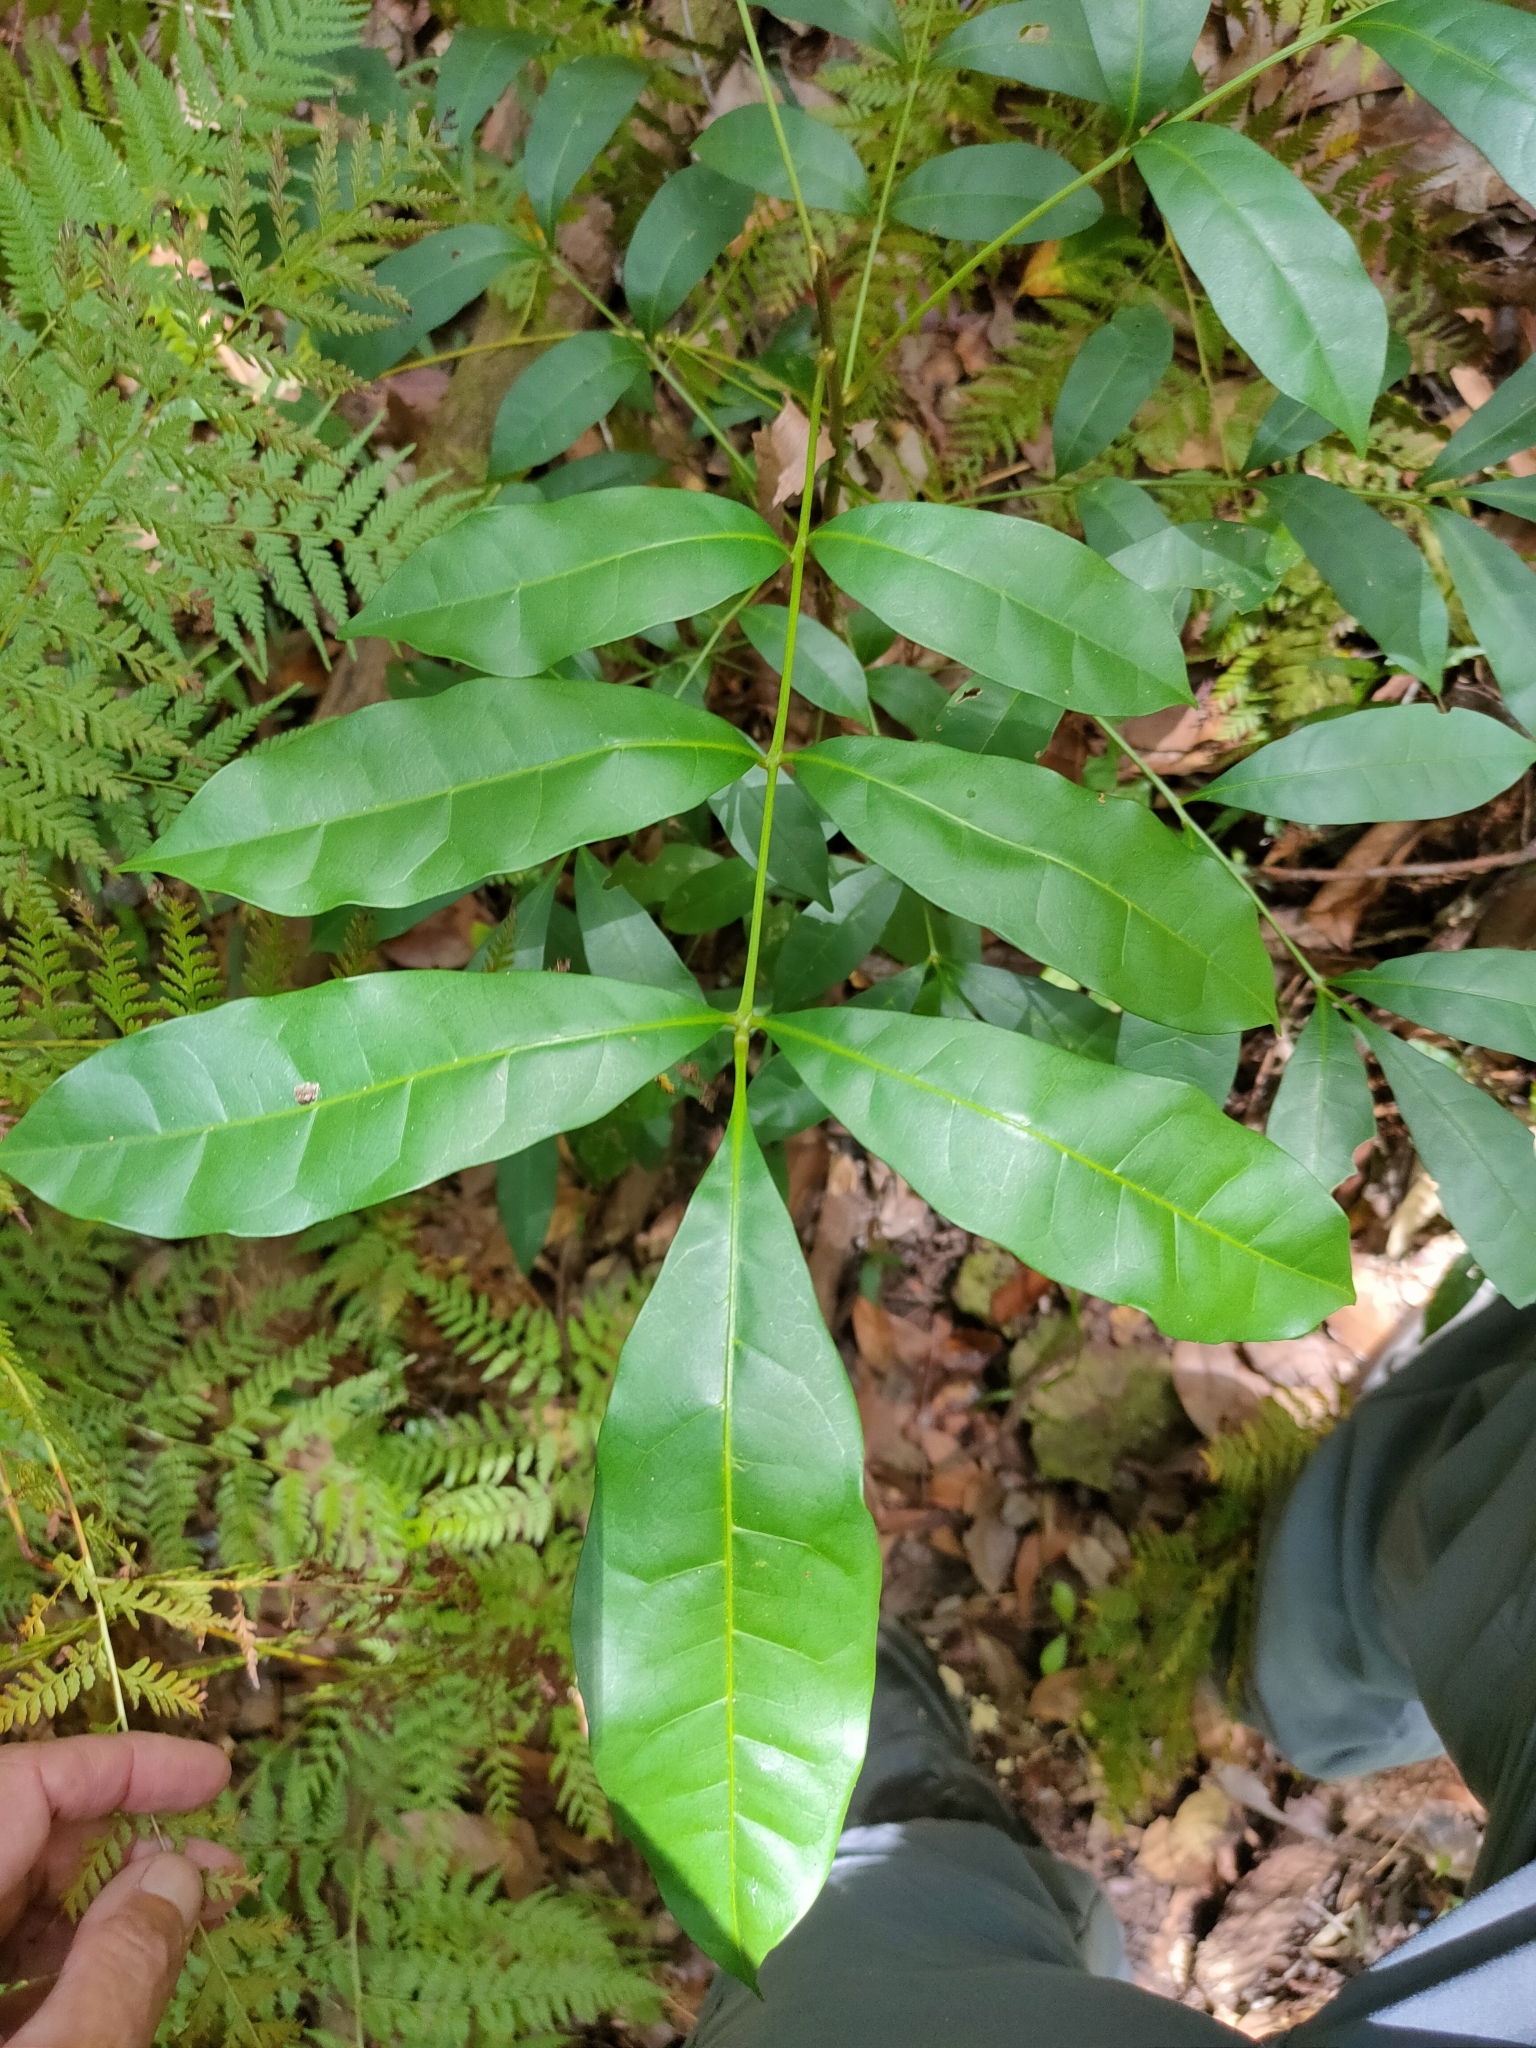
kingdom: Plantae
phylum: Tracheophyta
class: Magnoliopsida
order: Sapindales
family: Meliaceae
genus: Synoum
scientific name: Synoum glandulosum
